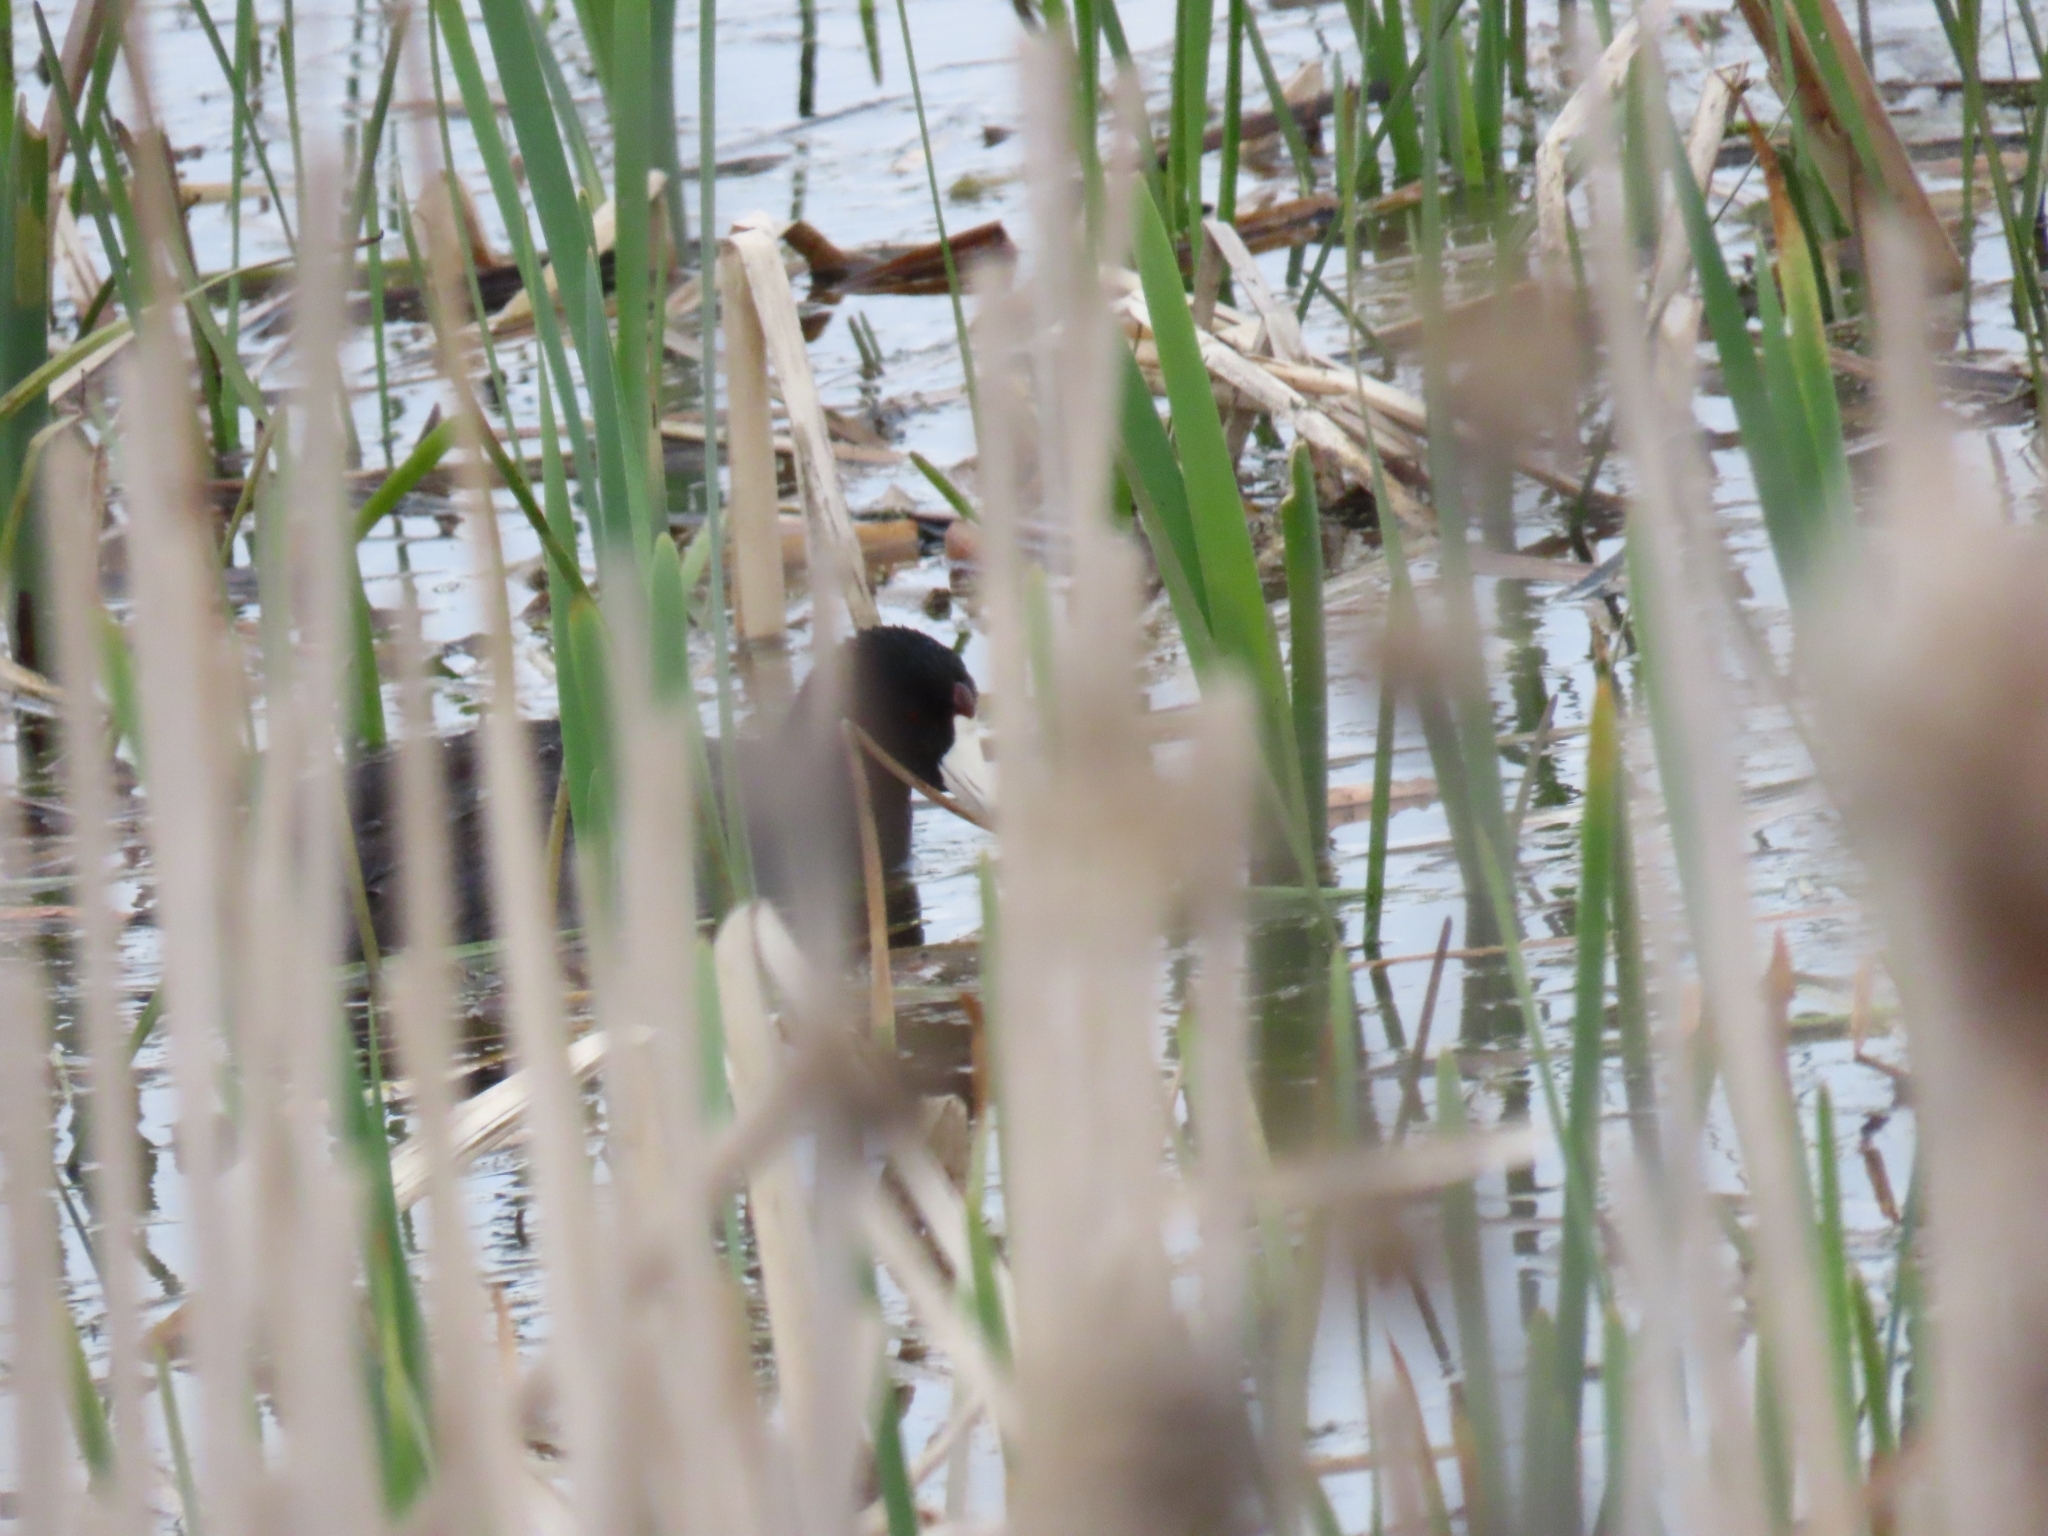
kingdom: Animalia
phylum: Chordata
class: Aves
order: Gruiformes
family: Rallidae
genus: Fulica
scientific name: Fulica americana
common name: American coot
